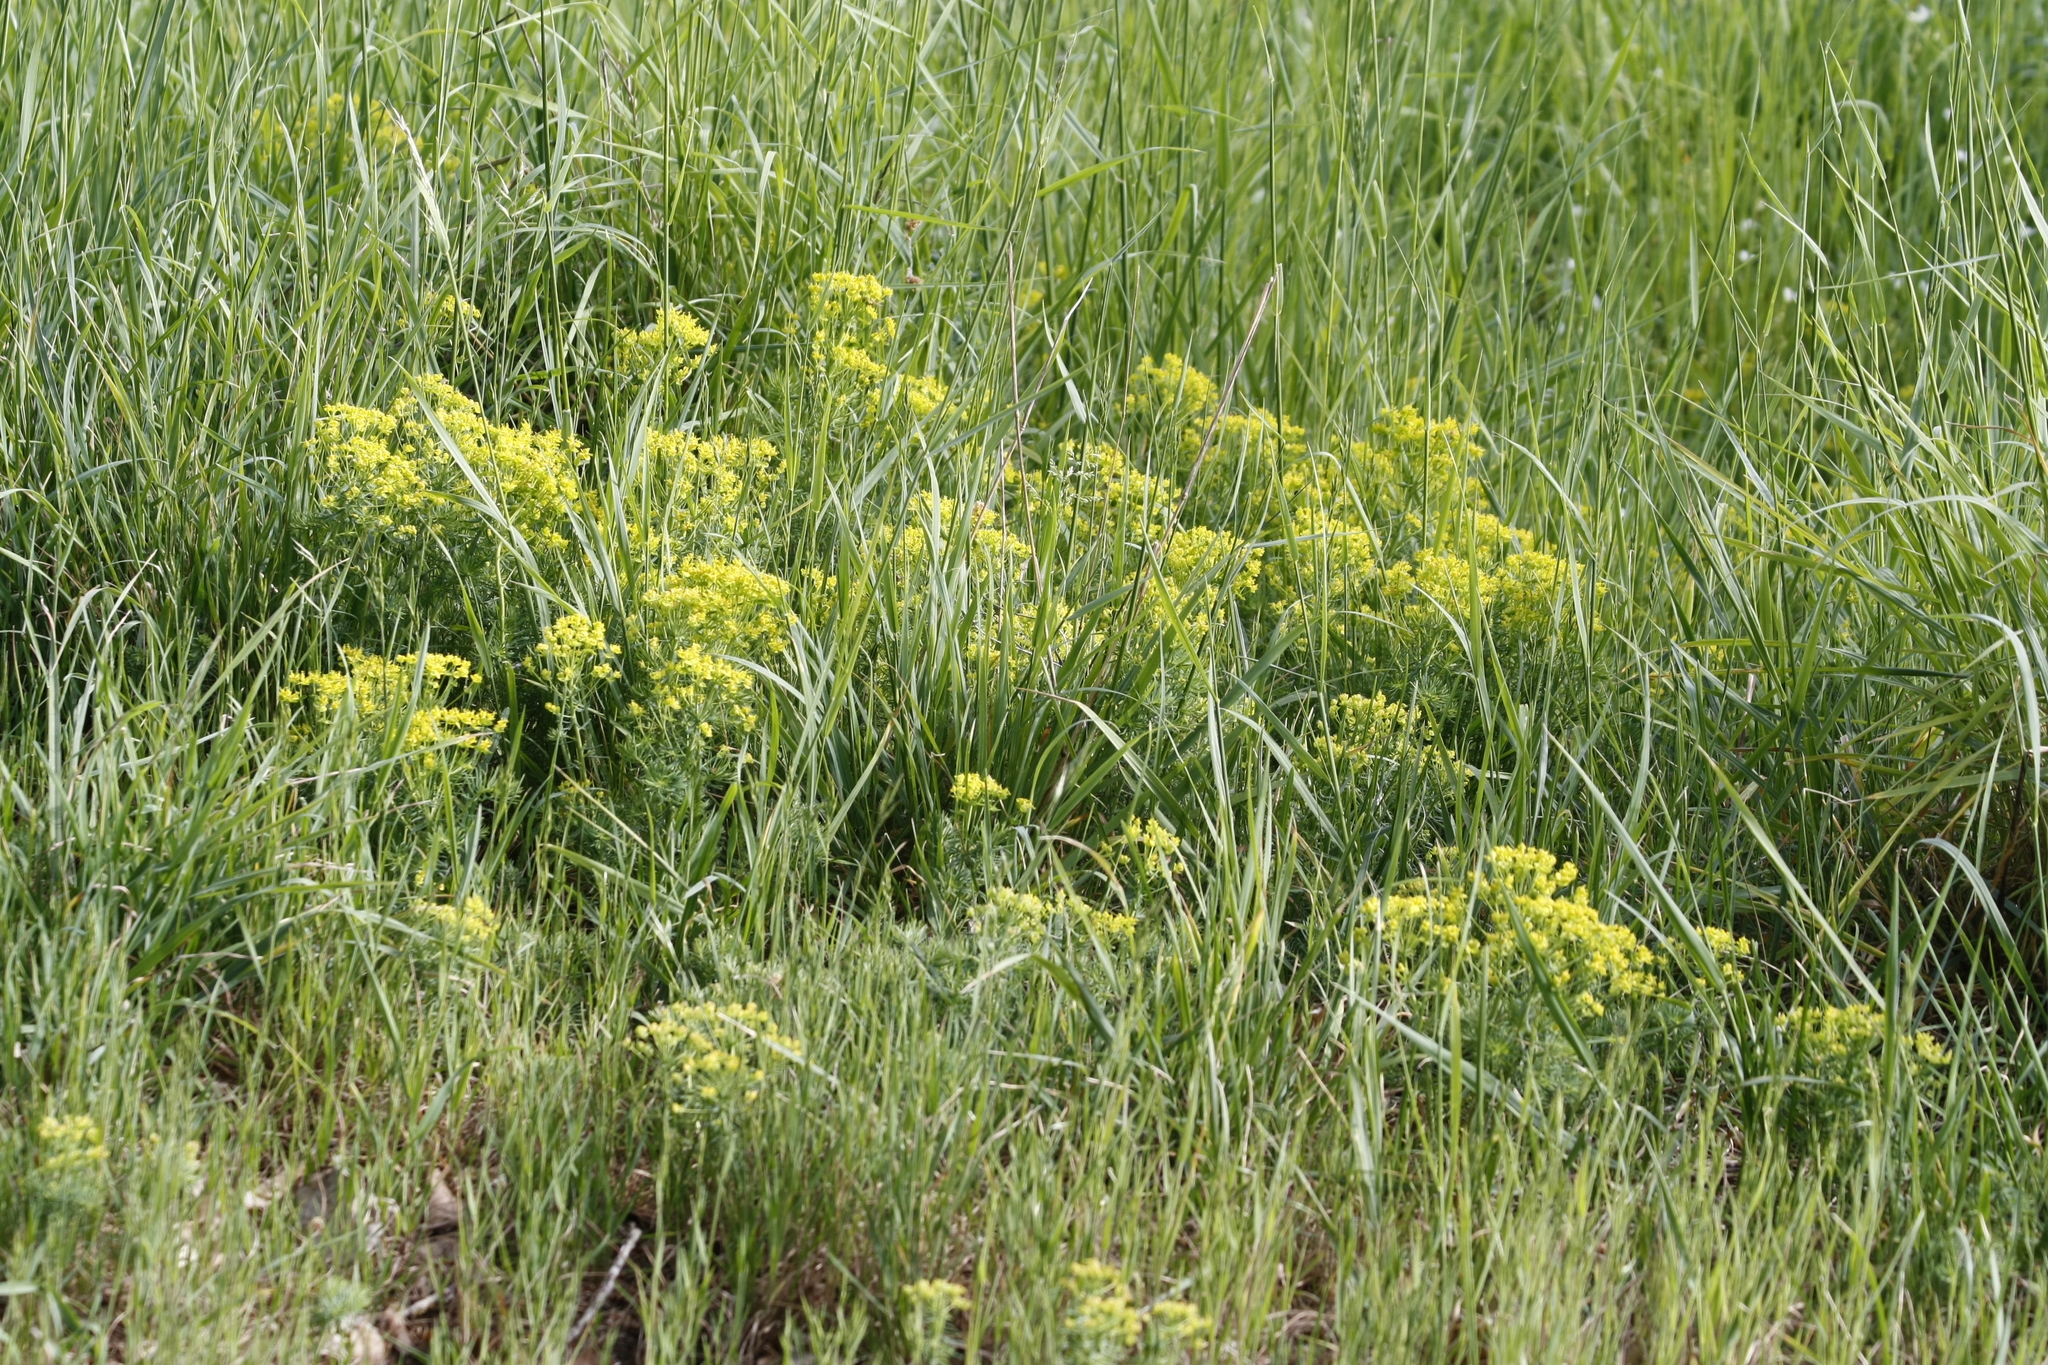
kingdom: Plantae
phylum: Tracheophyta
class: Magnoliopsida
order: Malpighiales
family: Euphorbiaceae
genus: Euphorbia
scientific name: Euphorbia cyparissias
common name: Cypress spurge
